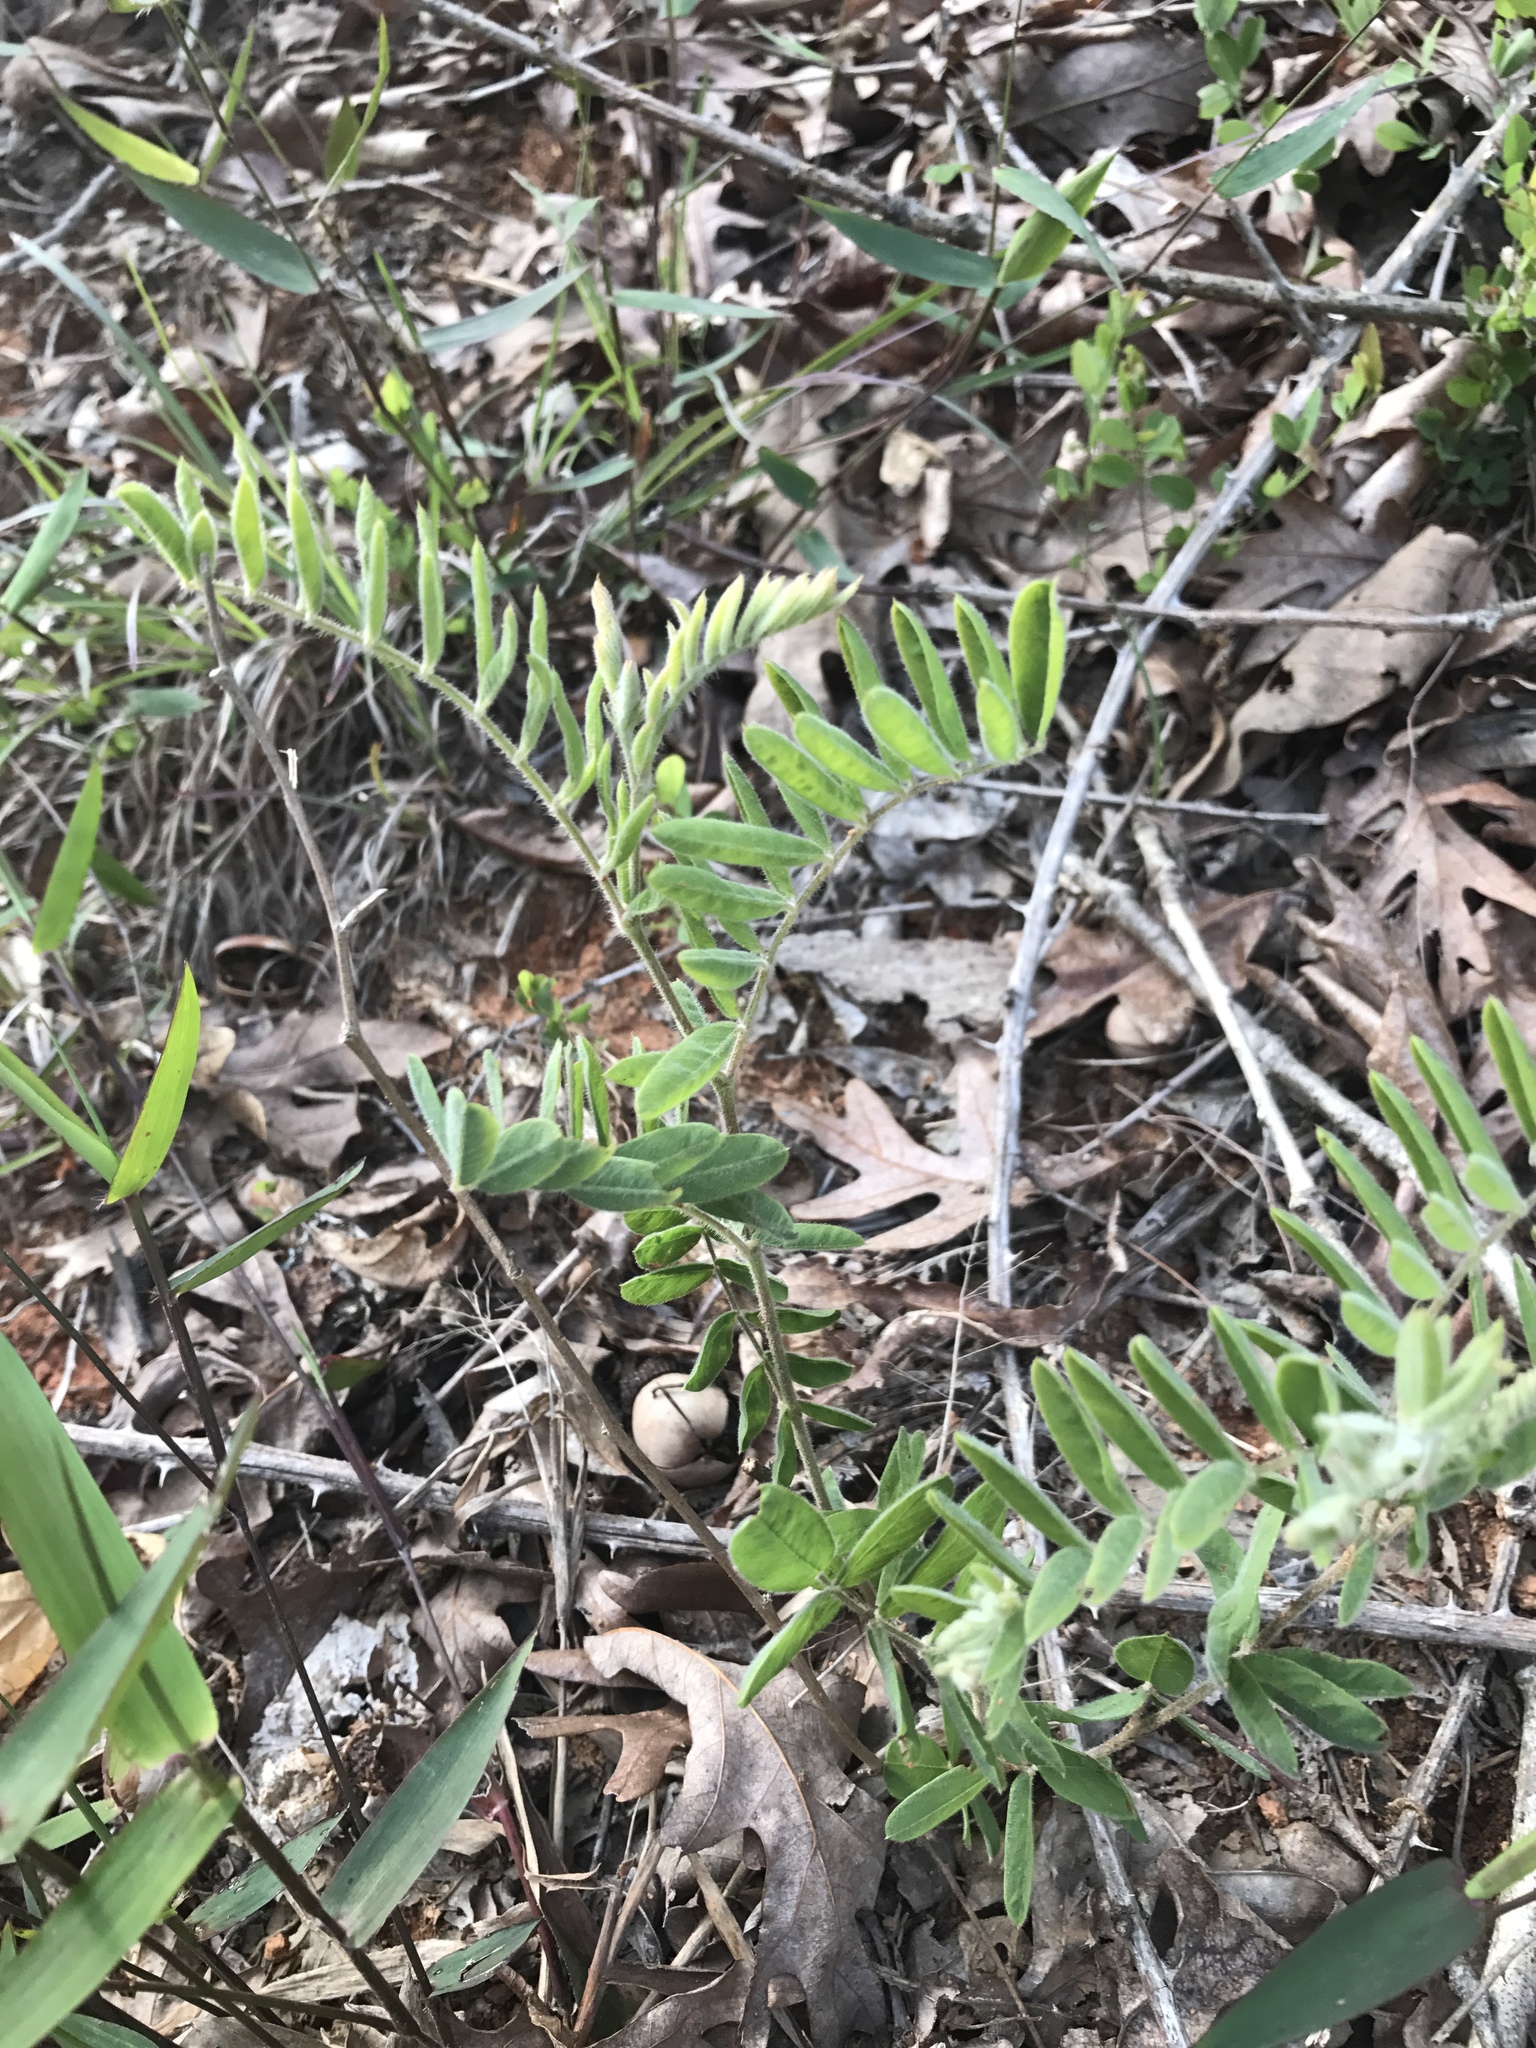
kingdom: Plantae
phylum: Tracheophyta
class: Magnoliopsida
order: Fabales
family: Fabaceae
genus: Tephrosia
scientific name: Tephrosia virginiana
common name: Rabbit-pea
